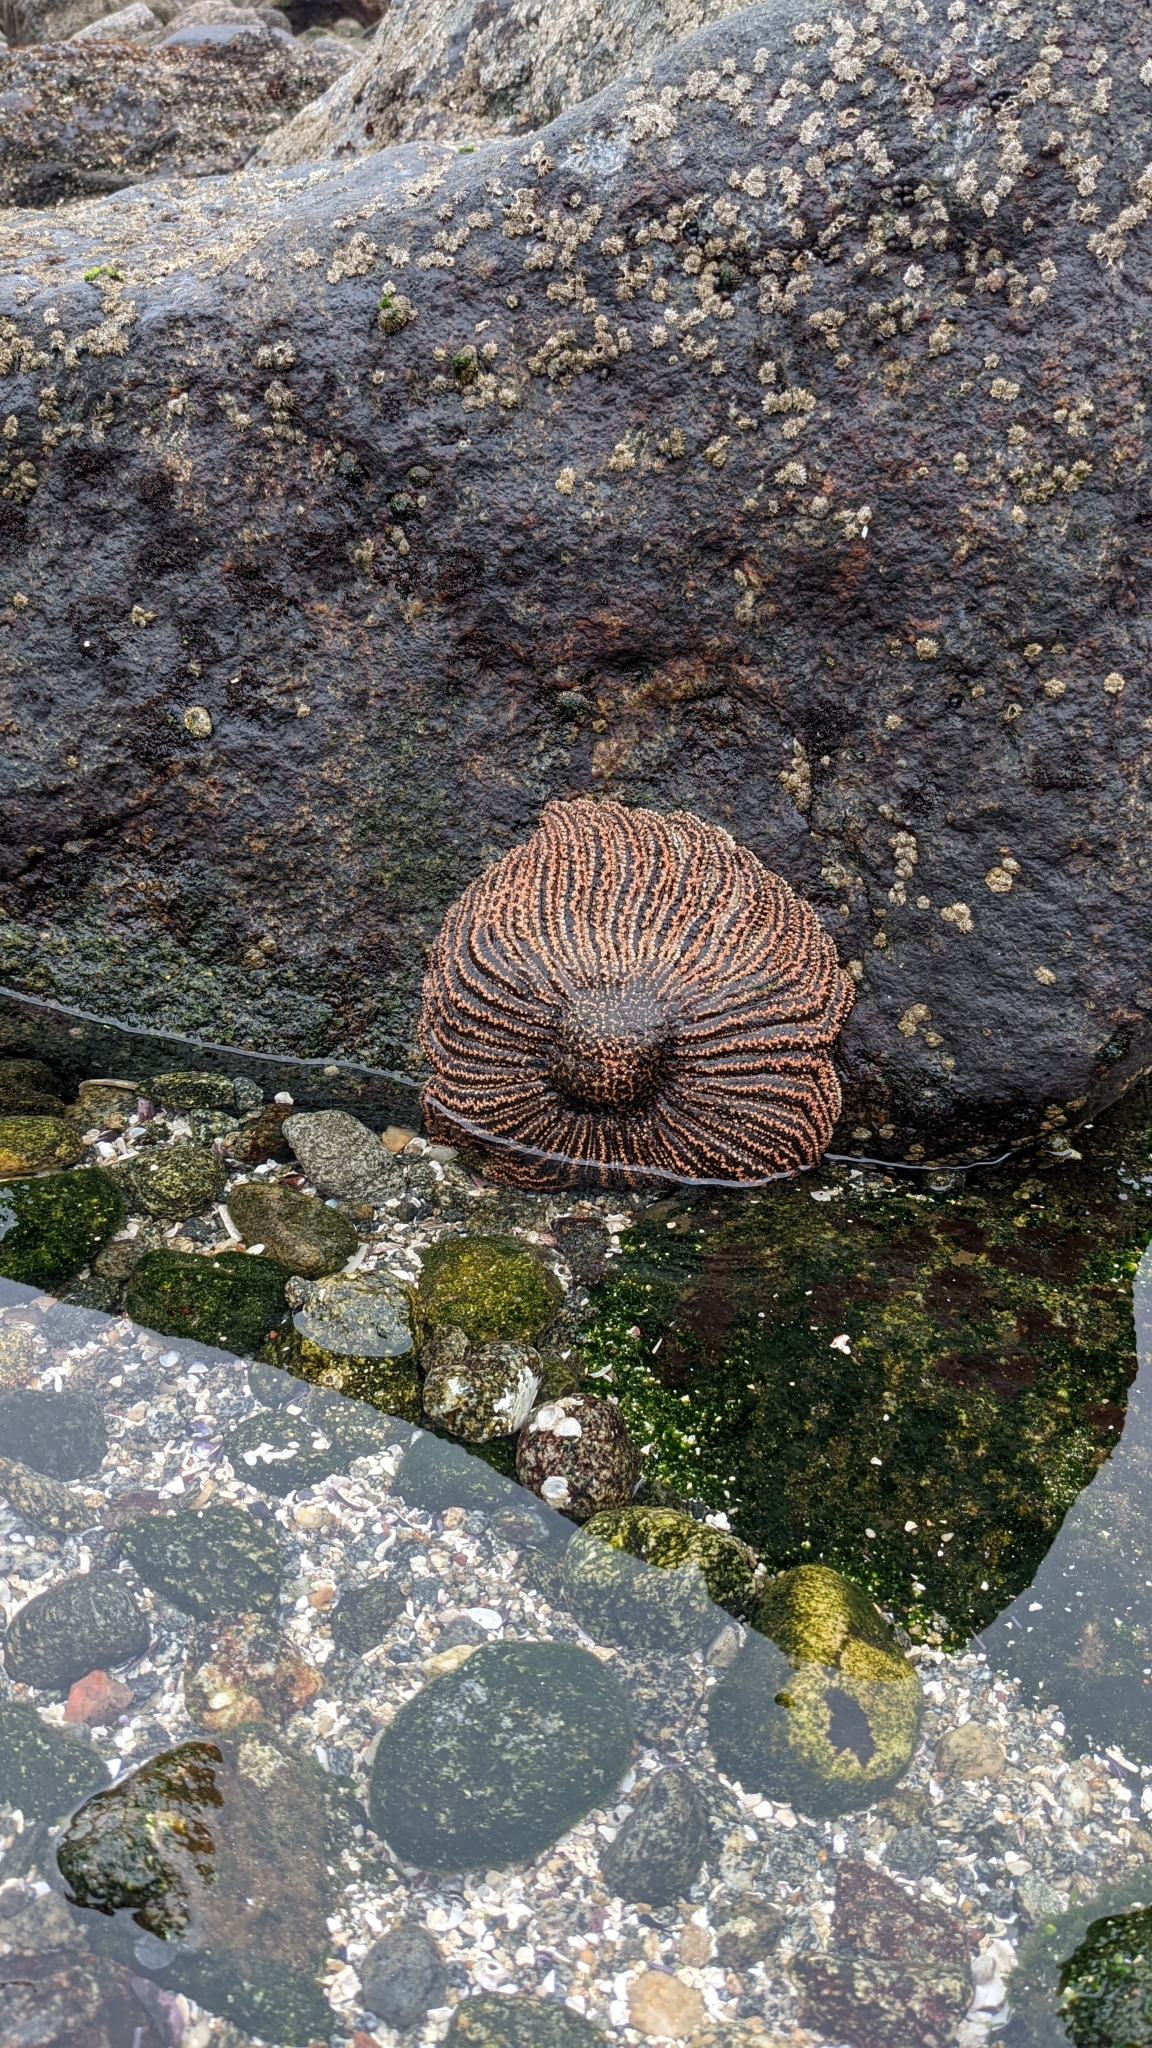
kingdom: Animalia
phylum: Echinodermata
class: Asteroidea
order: Forcipulatida
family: Heliasteridae
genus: Heliaster
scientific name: Heliaster helianthus
